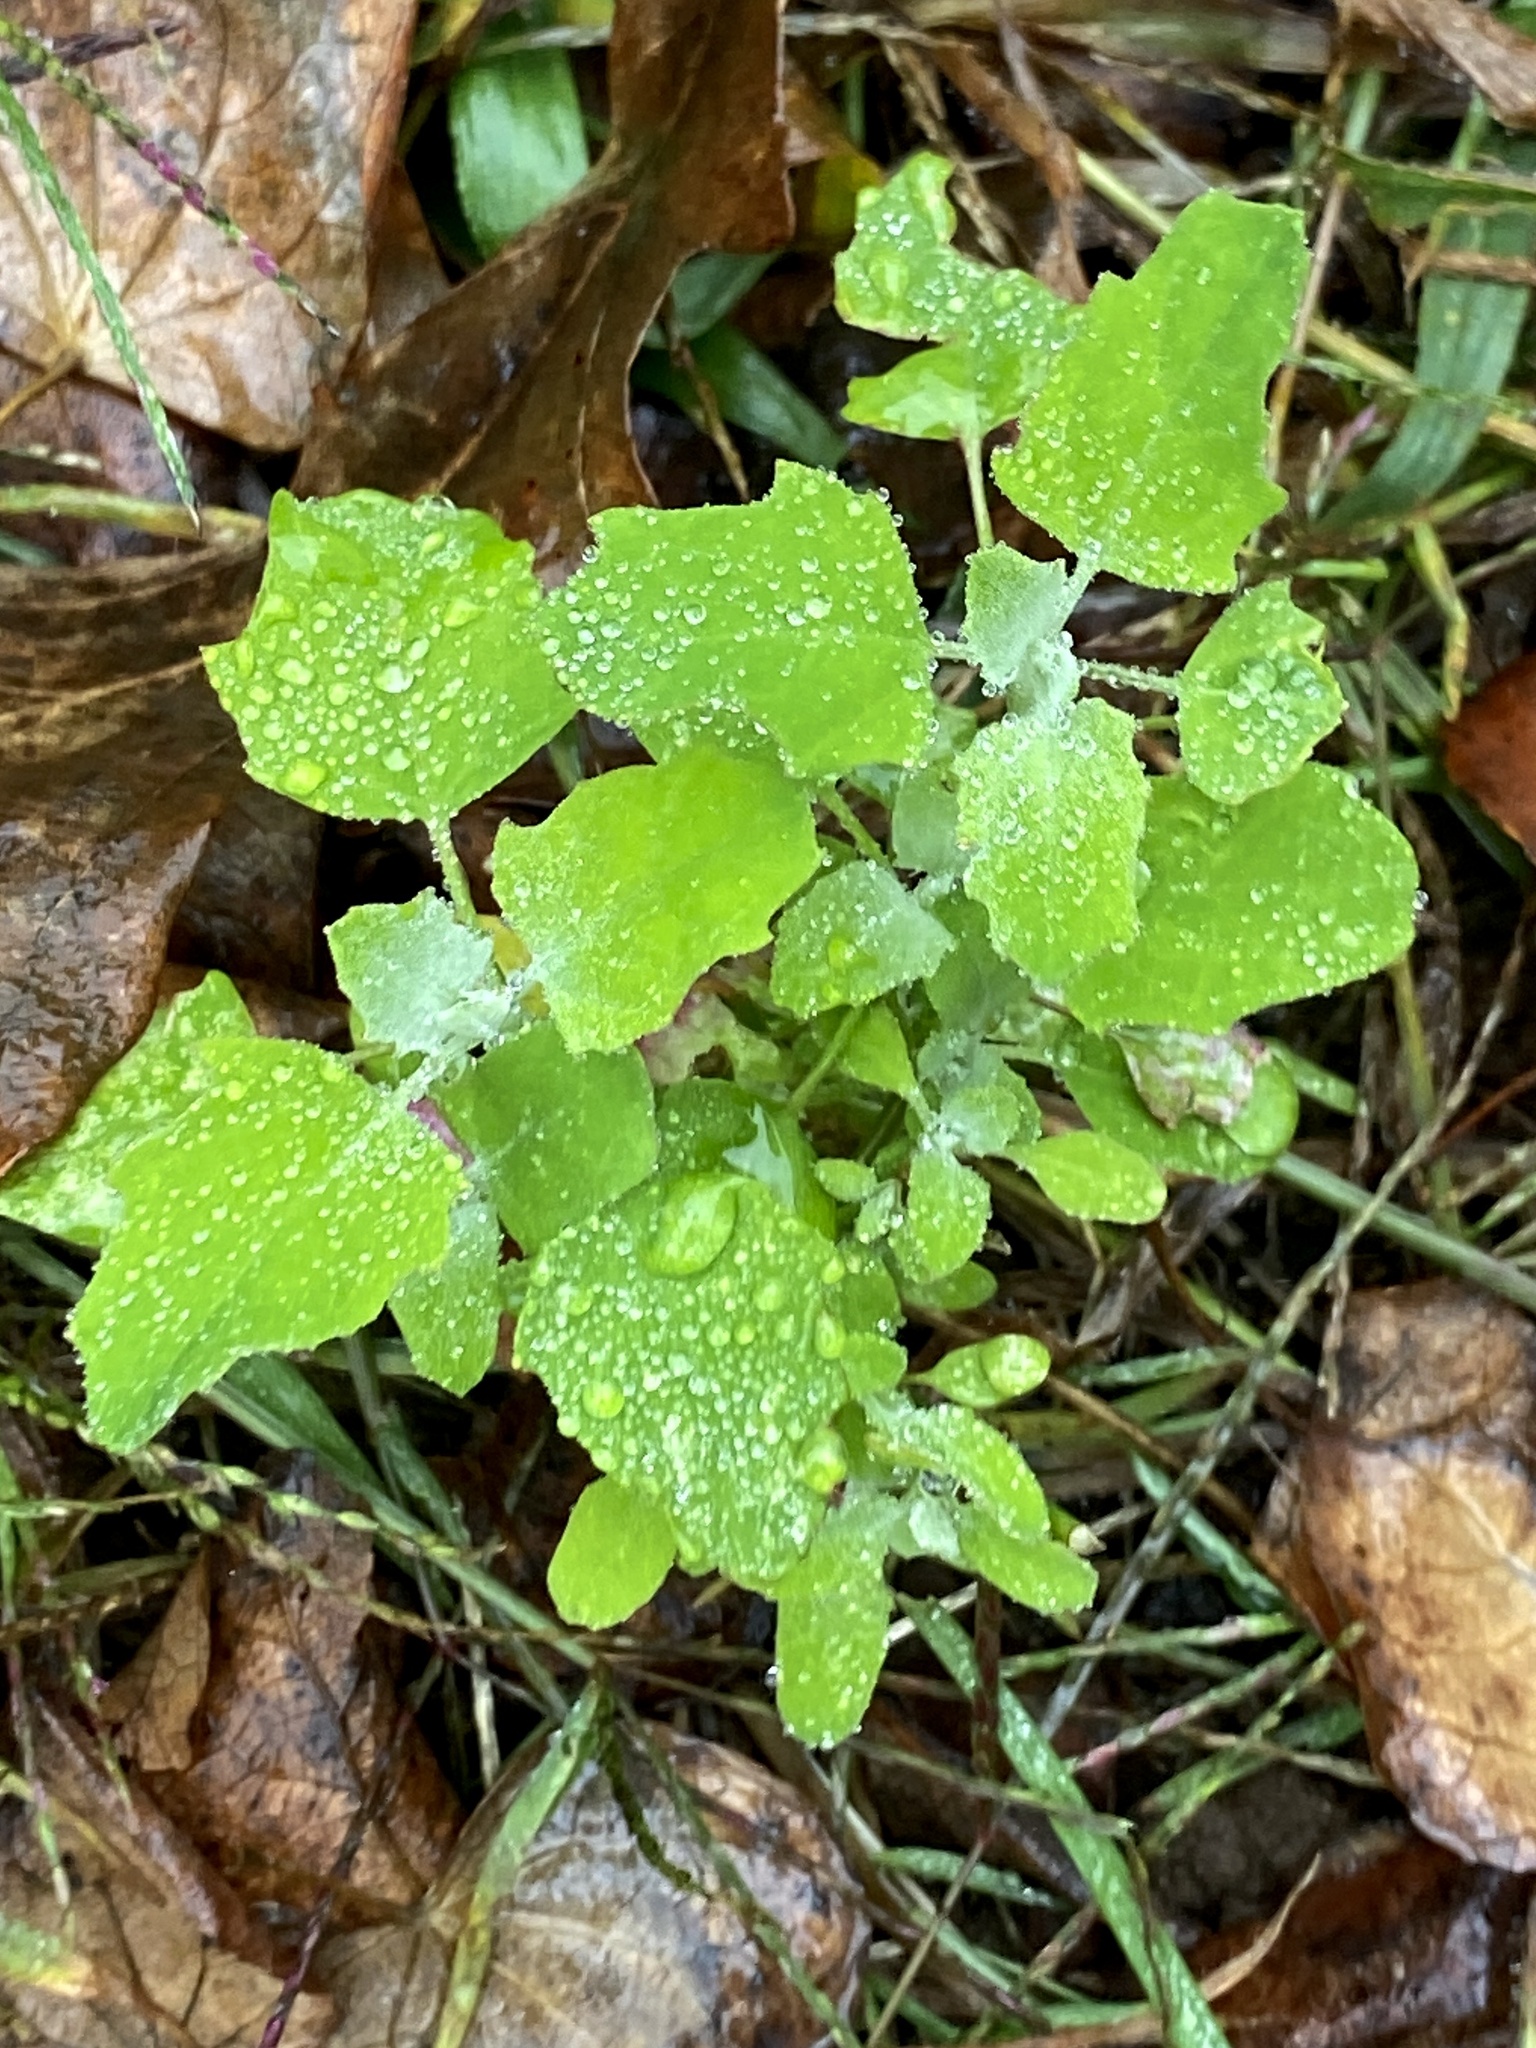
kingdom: Plantae
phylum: Tracheophyta
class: Magnoliopsida
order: Caryophyllales
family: Amaranthaceae
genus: Chenopodium
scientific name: Chenopodium album
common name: Fat-hen
